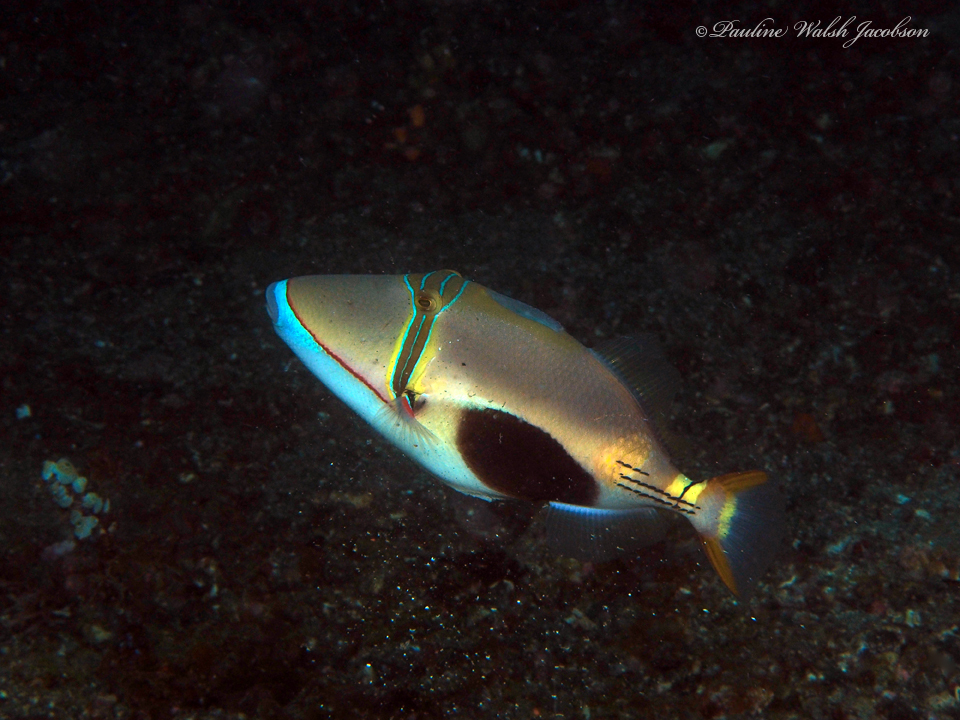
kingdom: Animalia
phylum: Chordata
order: Tetraodontiformes
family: Balistidae
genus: Rhinecanthus
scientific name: Rhinecanthus verrucosus
